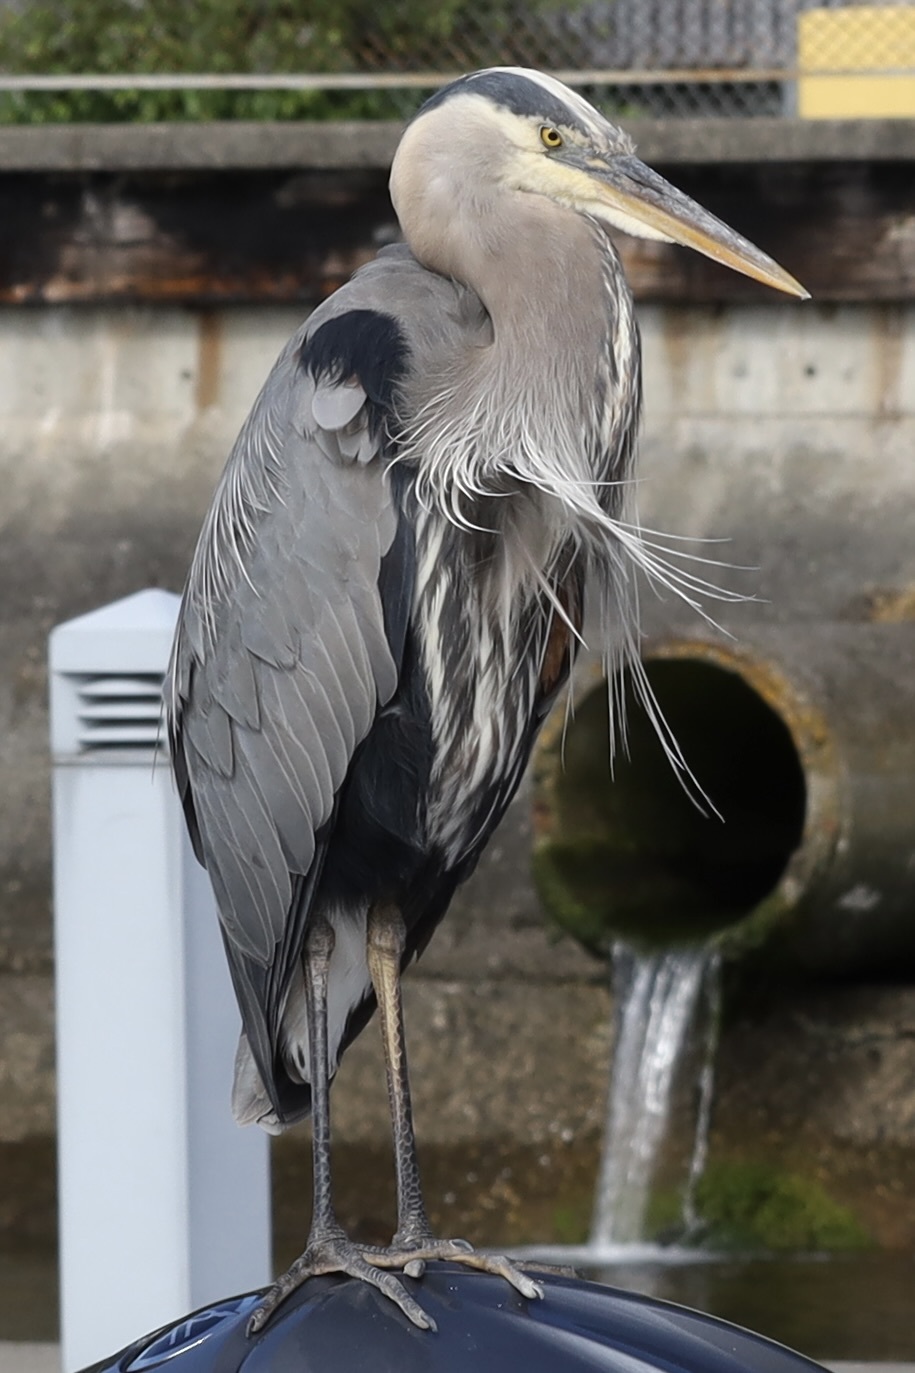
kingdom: Animalia
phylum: Chordata
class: Aves
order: Pelecaniformes
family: Ardeidae
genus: Ardea
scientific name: Ardea herodias
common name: Great blue heron
